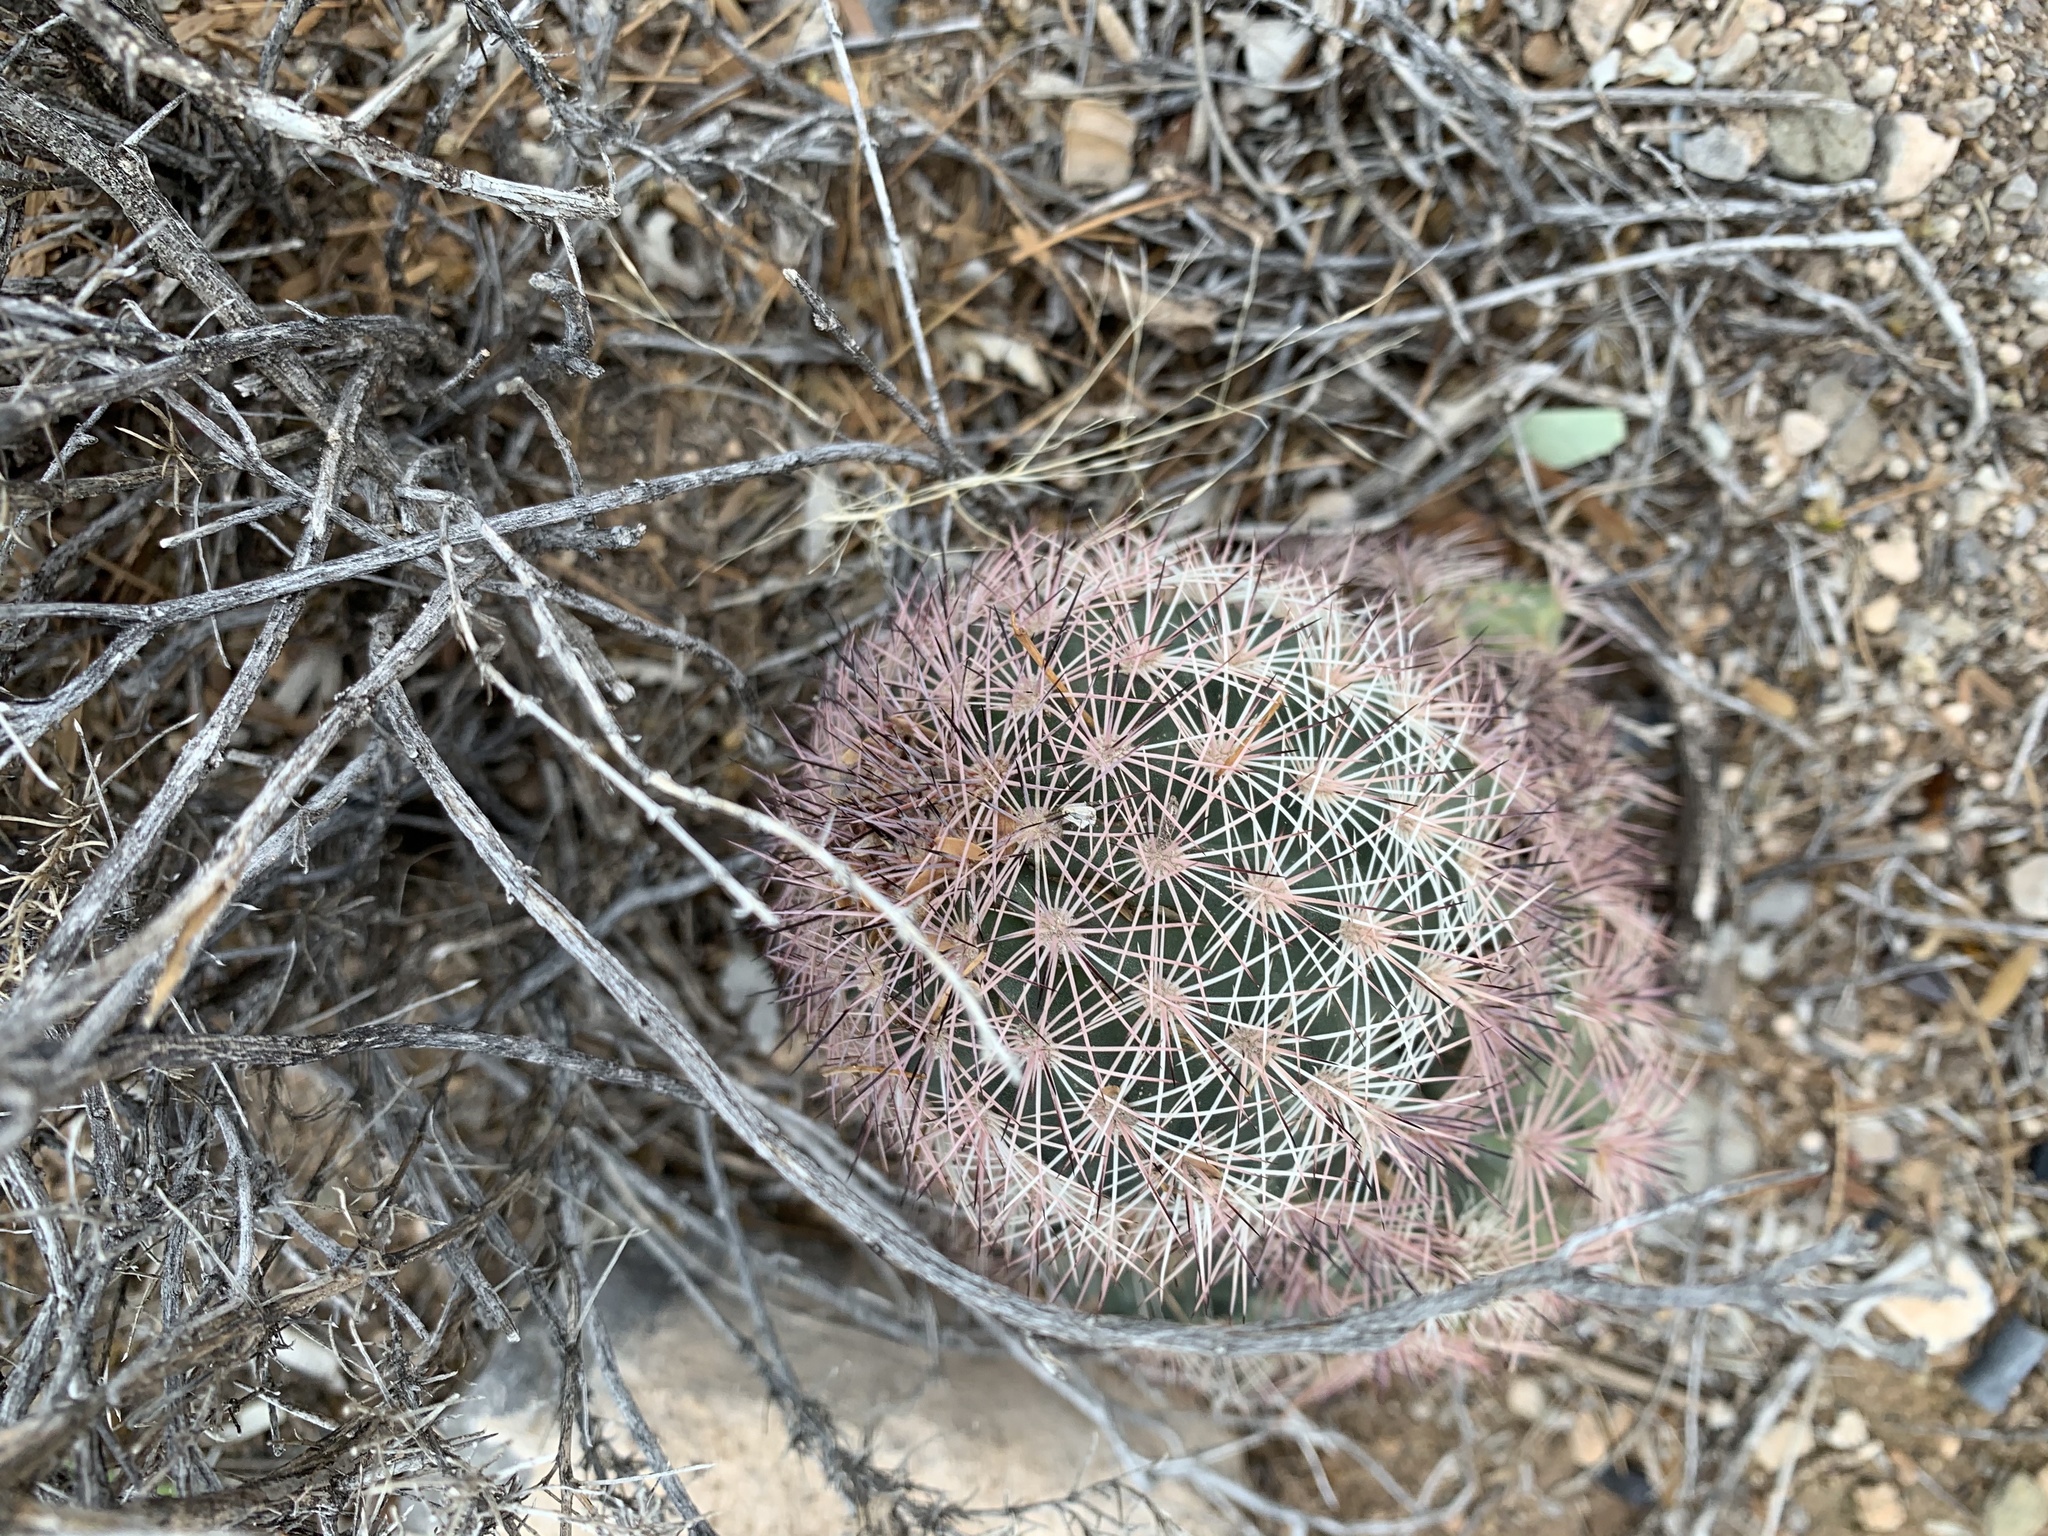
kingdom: Plantae
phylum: Tracheophyta
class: Magnoliopsida
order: Caryophyllales
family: Cactaceae
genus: Echinocereus
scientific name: Echinocereus dasyacanthus
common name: Spiny hedgehog cactus
